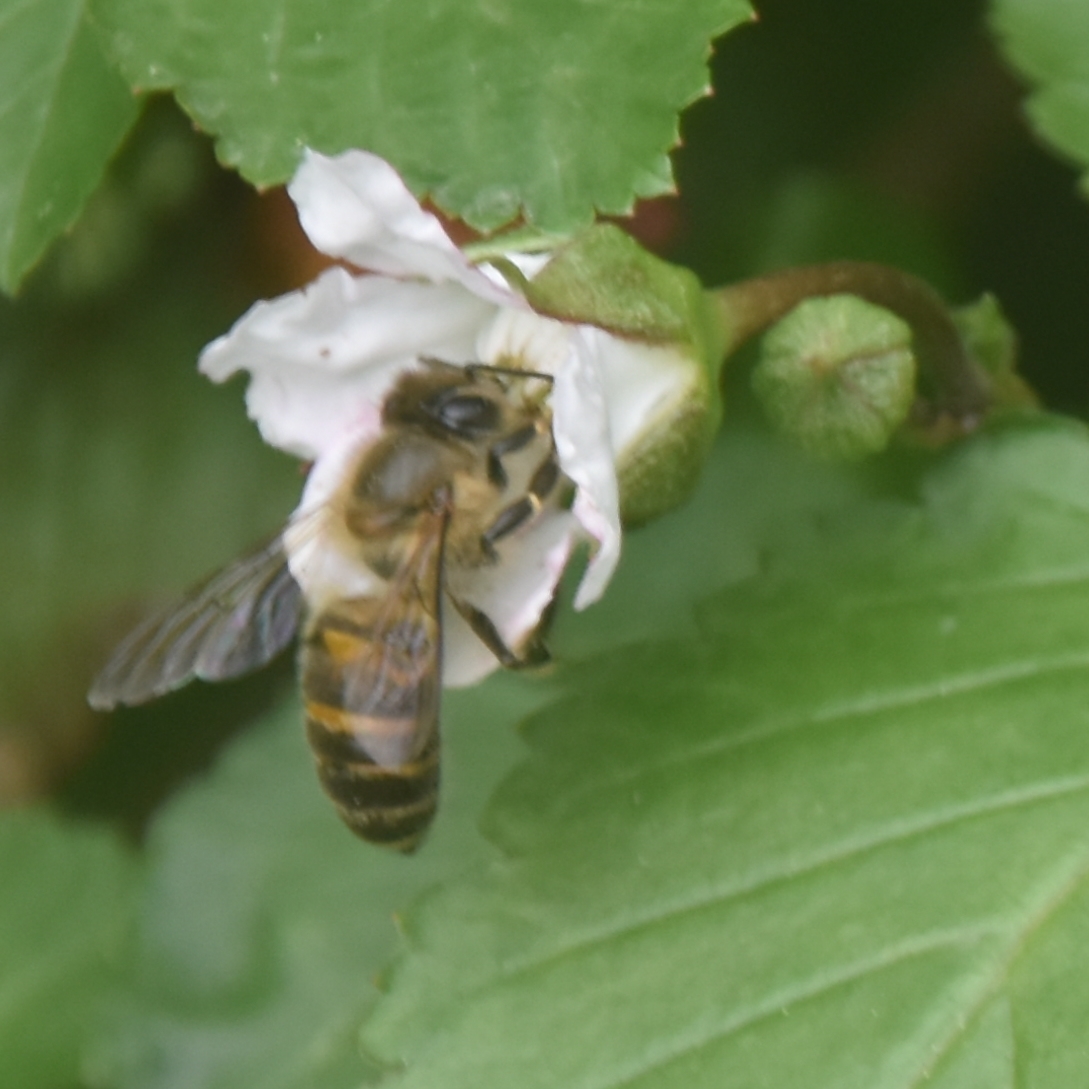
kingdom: Animalia
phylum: Arthropoda
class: Insecta
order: Hymenoptera
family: Apidae
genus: Apis
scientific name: Apis cerana
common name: Honey bee
